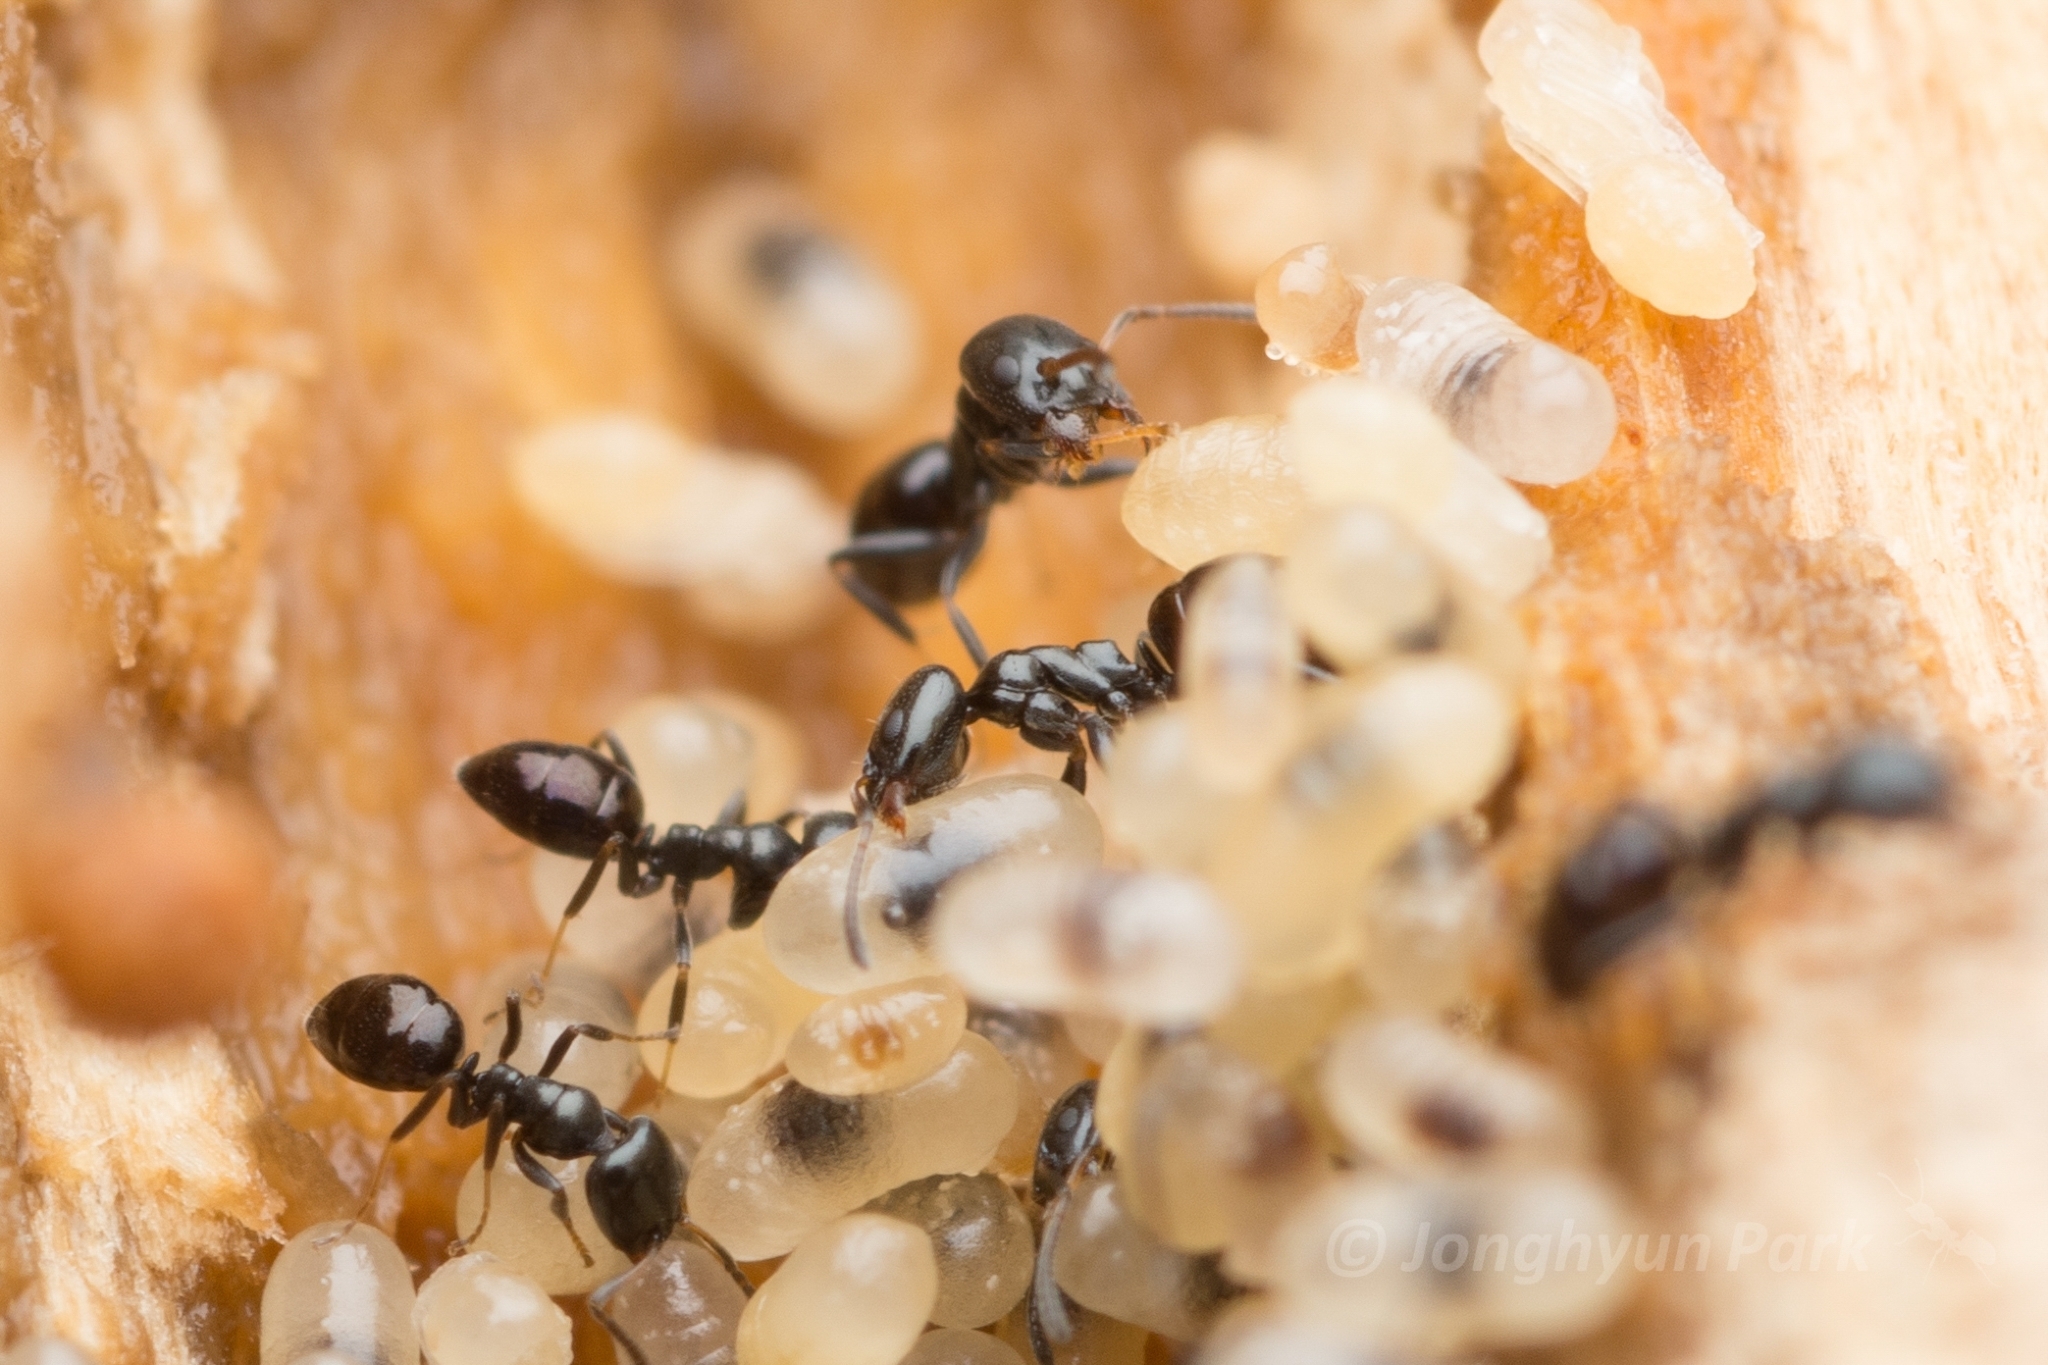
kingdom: Animalia
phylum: Arthropoda
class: Insecta
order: Hymenoptera
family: Formicidae
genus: Ochetellus
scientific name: Ochetellus glaber
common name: Ant
